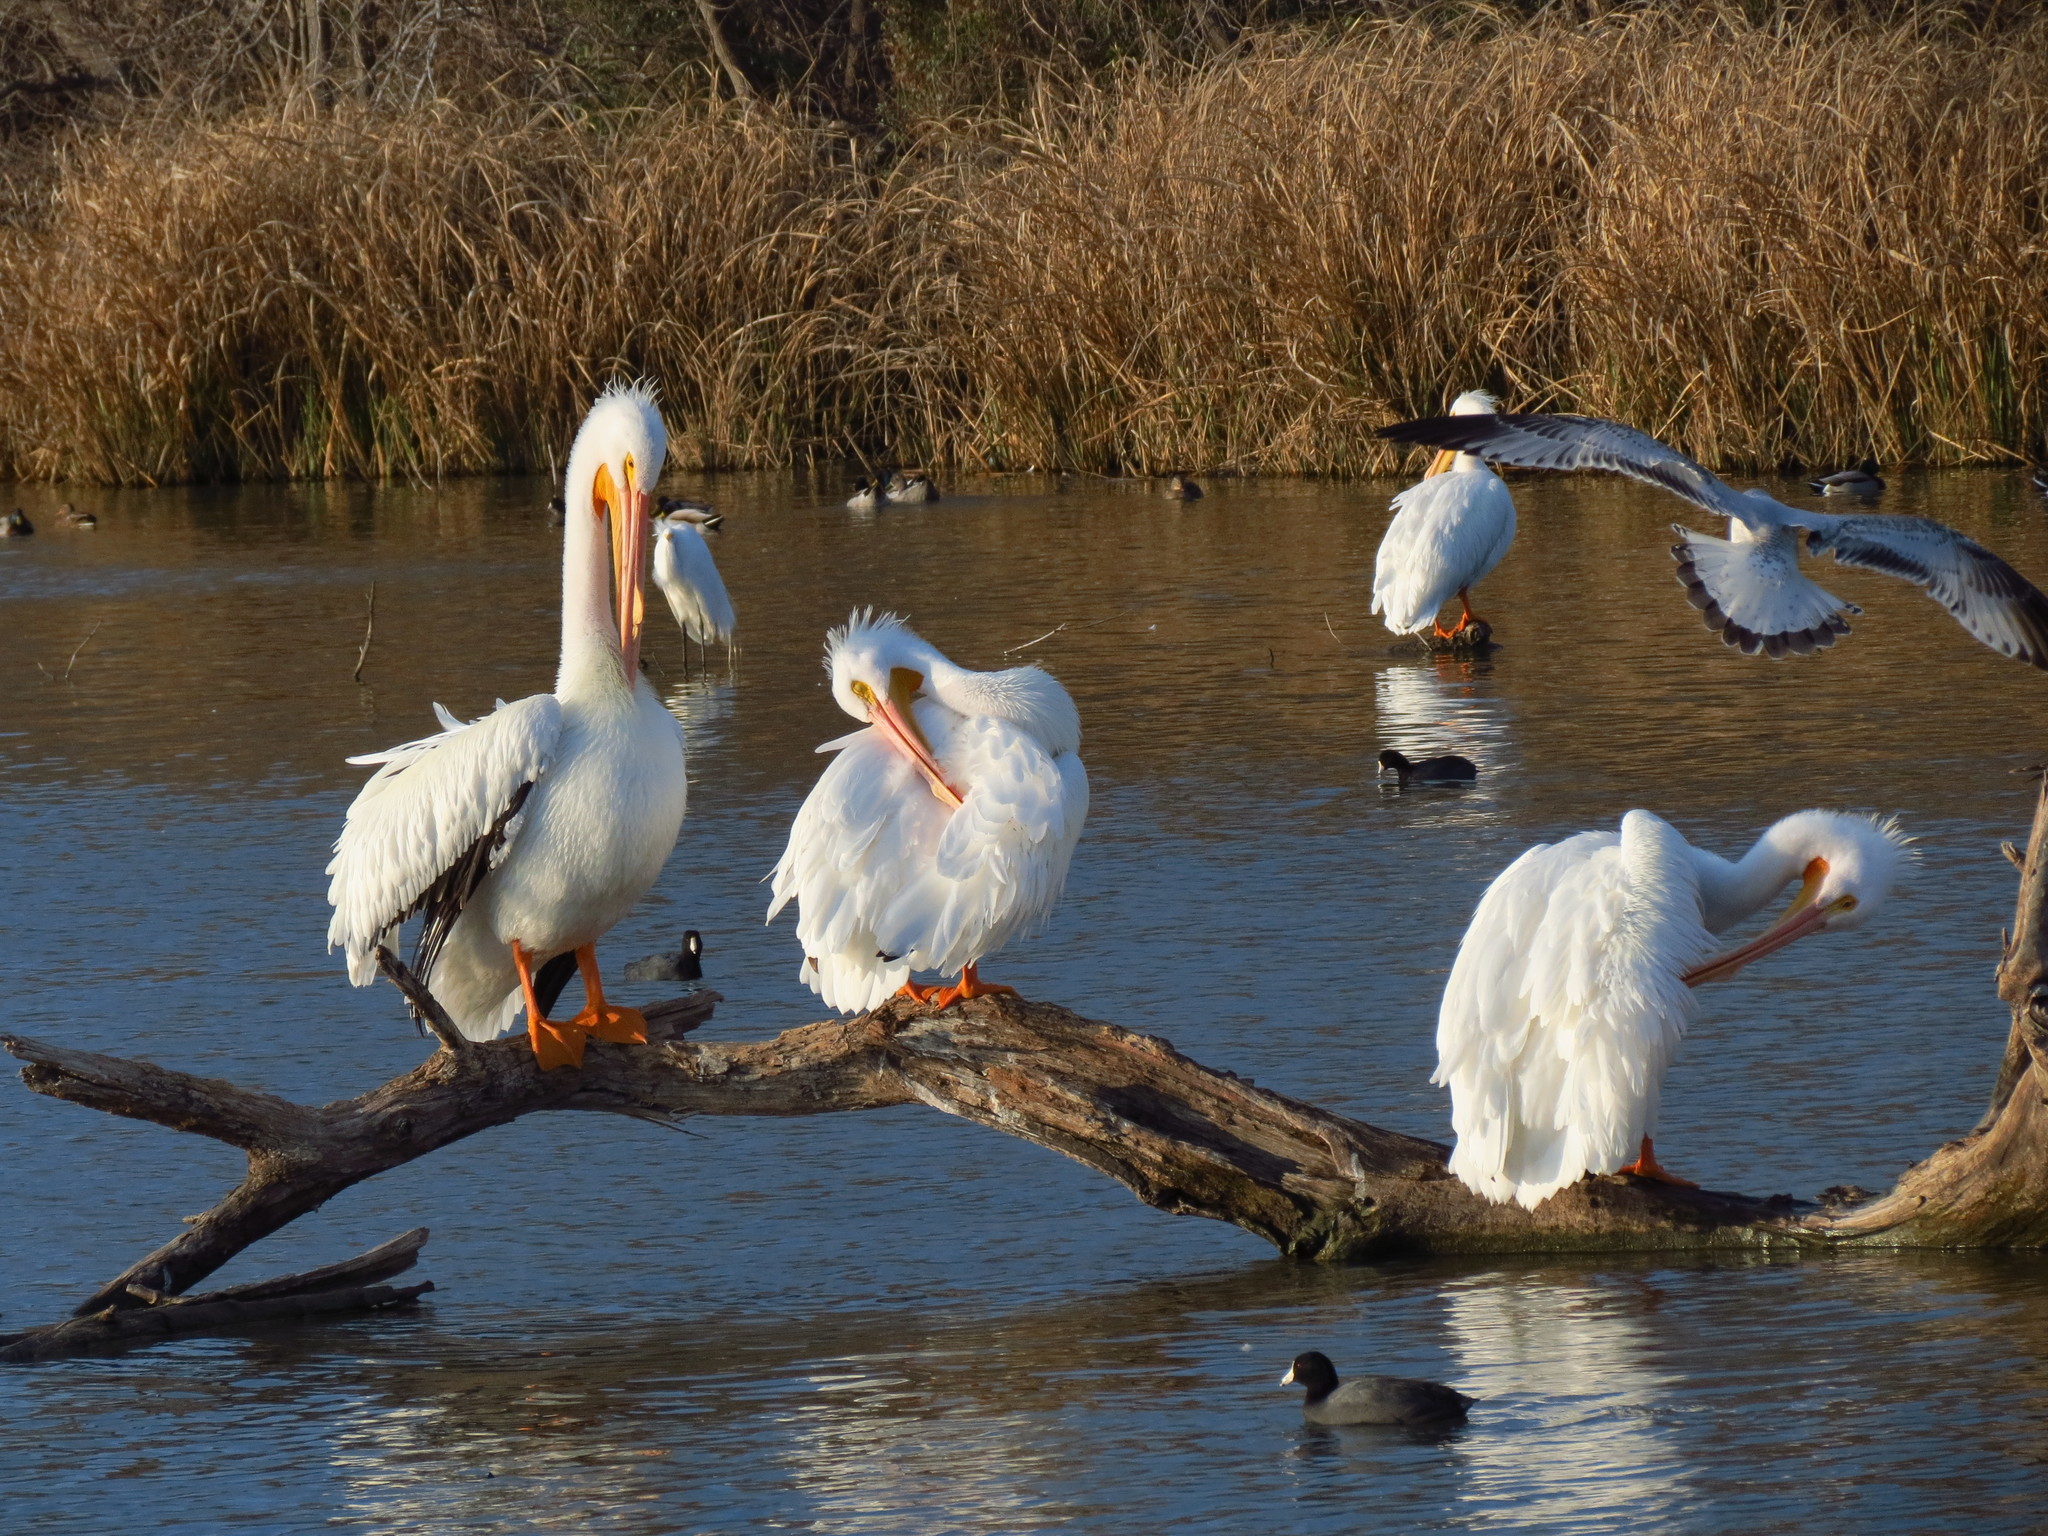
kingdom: Animalia
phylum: Chordata
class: Aves
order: Pelecaniformes
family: Pelecanidae
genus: Pelecanus
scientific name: Pelecanus erythrorhynchos
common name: American white pelican
